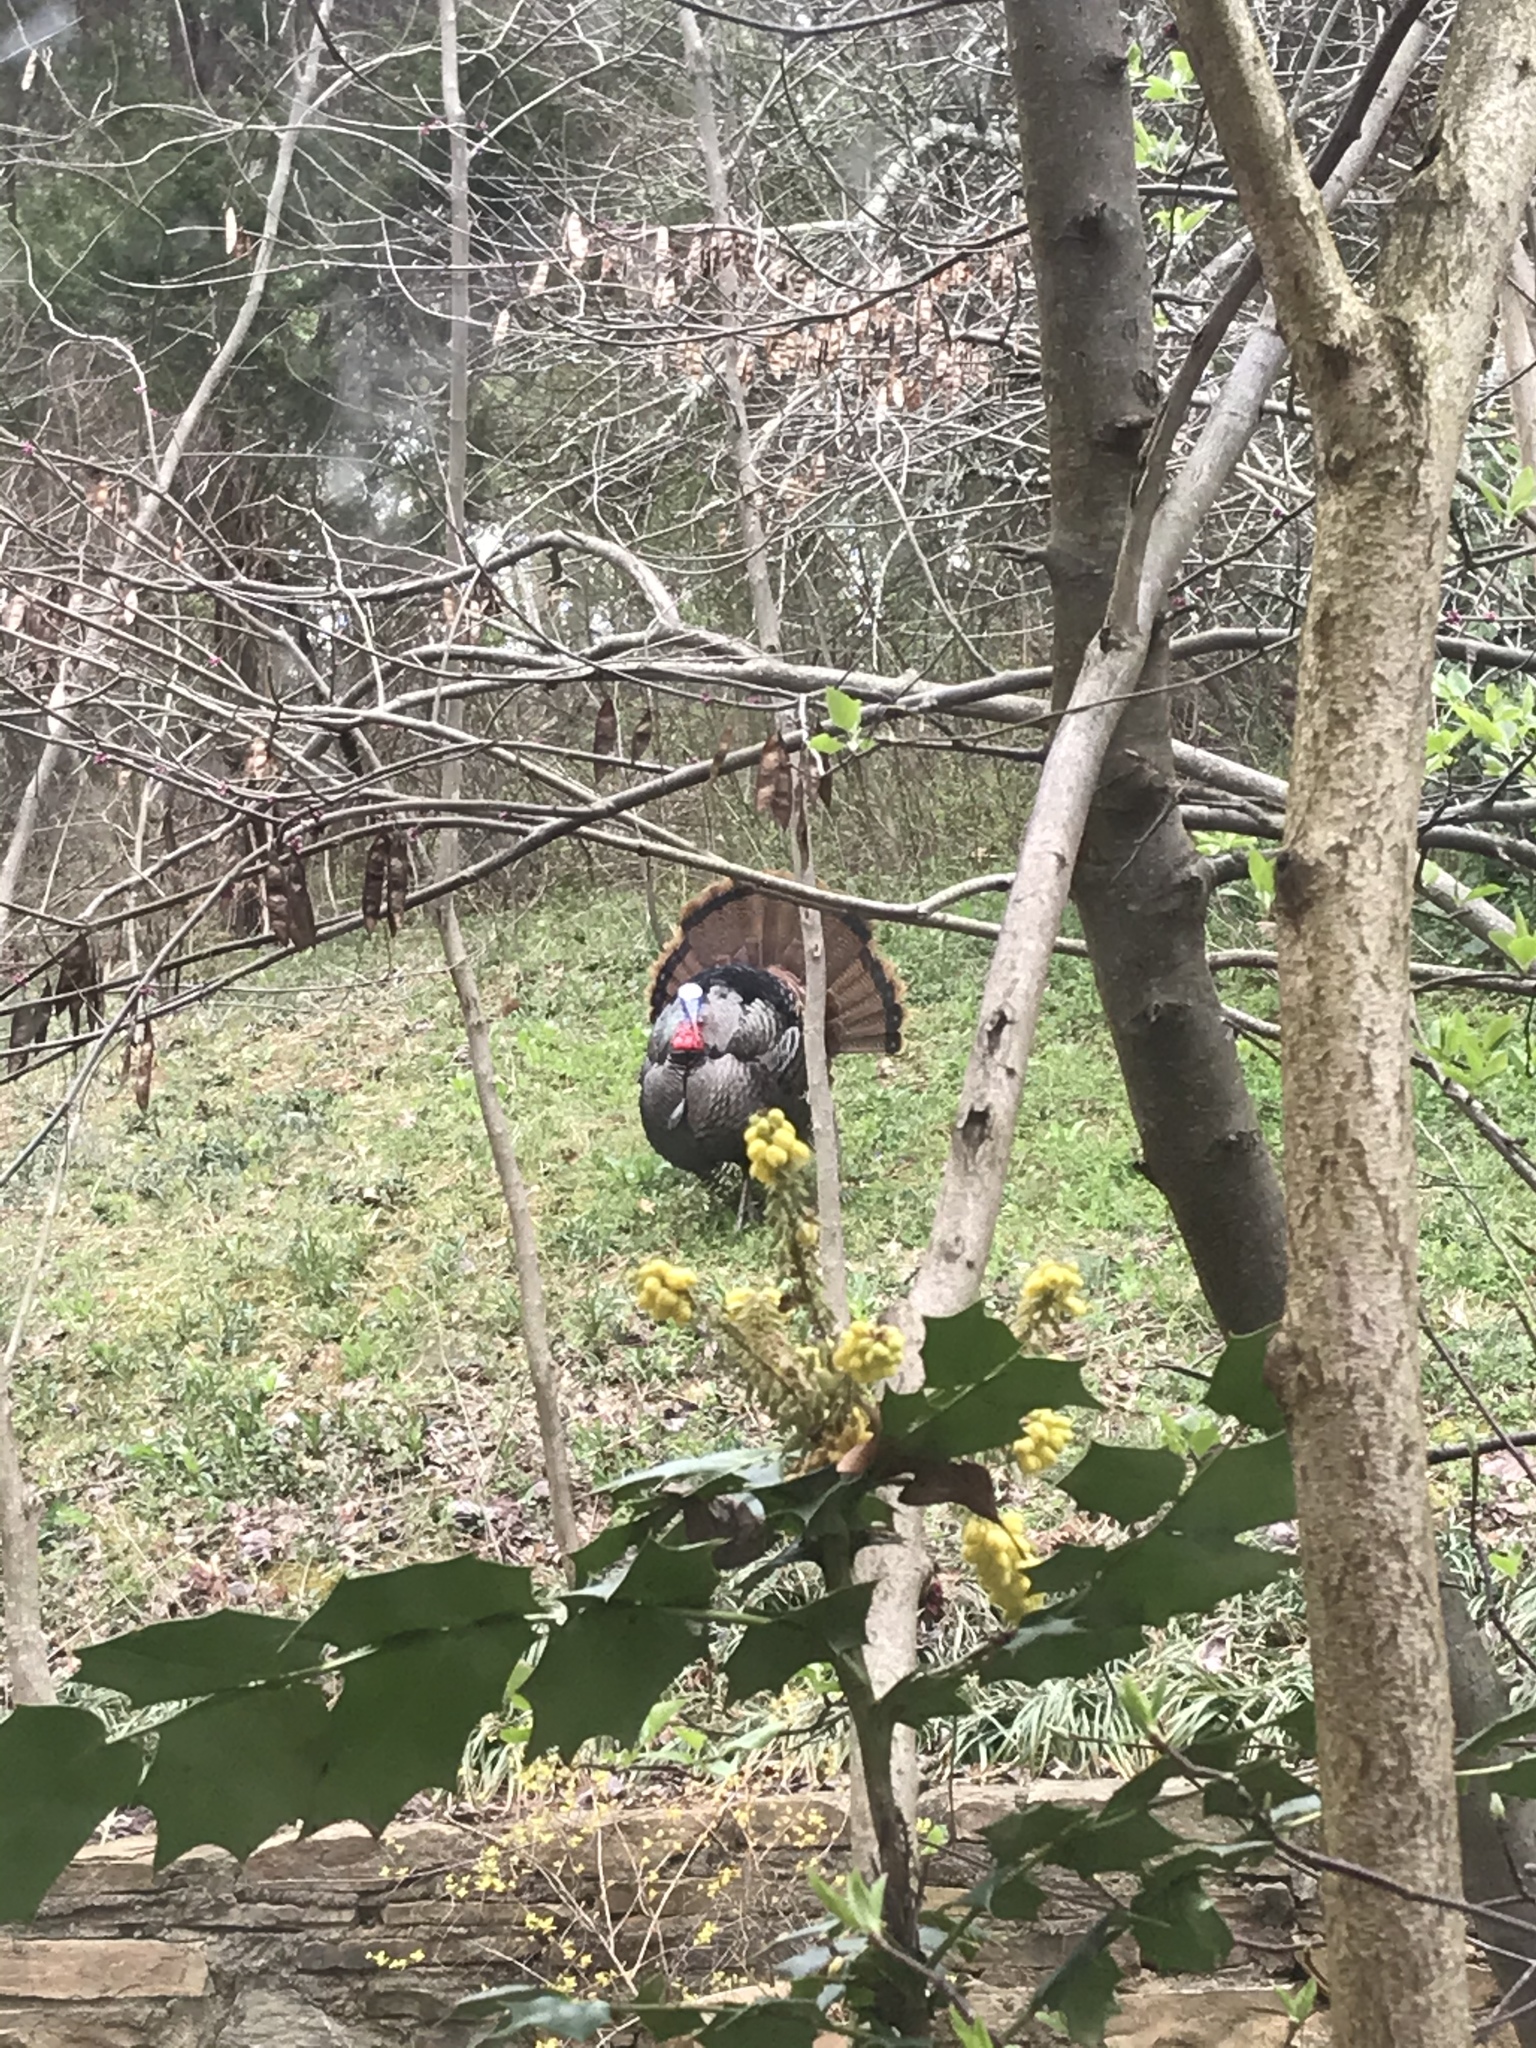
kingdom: Animalia
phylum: Chordata
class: Aves
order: Galliformes
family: Phasianidae
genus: Meleagris
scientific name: Meleagris gallopavo
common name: Wild turkey
